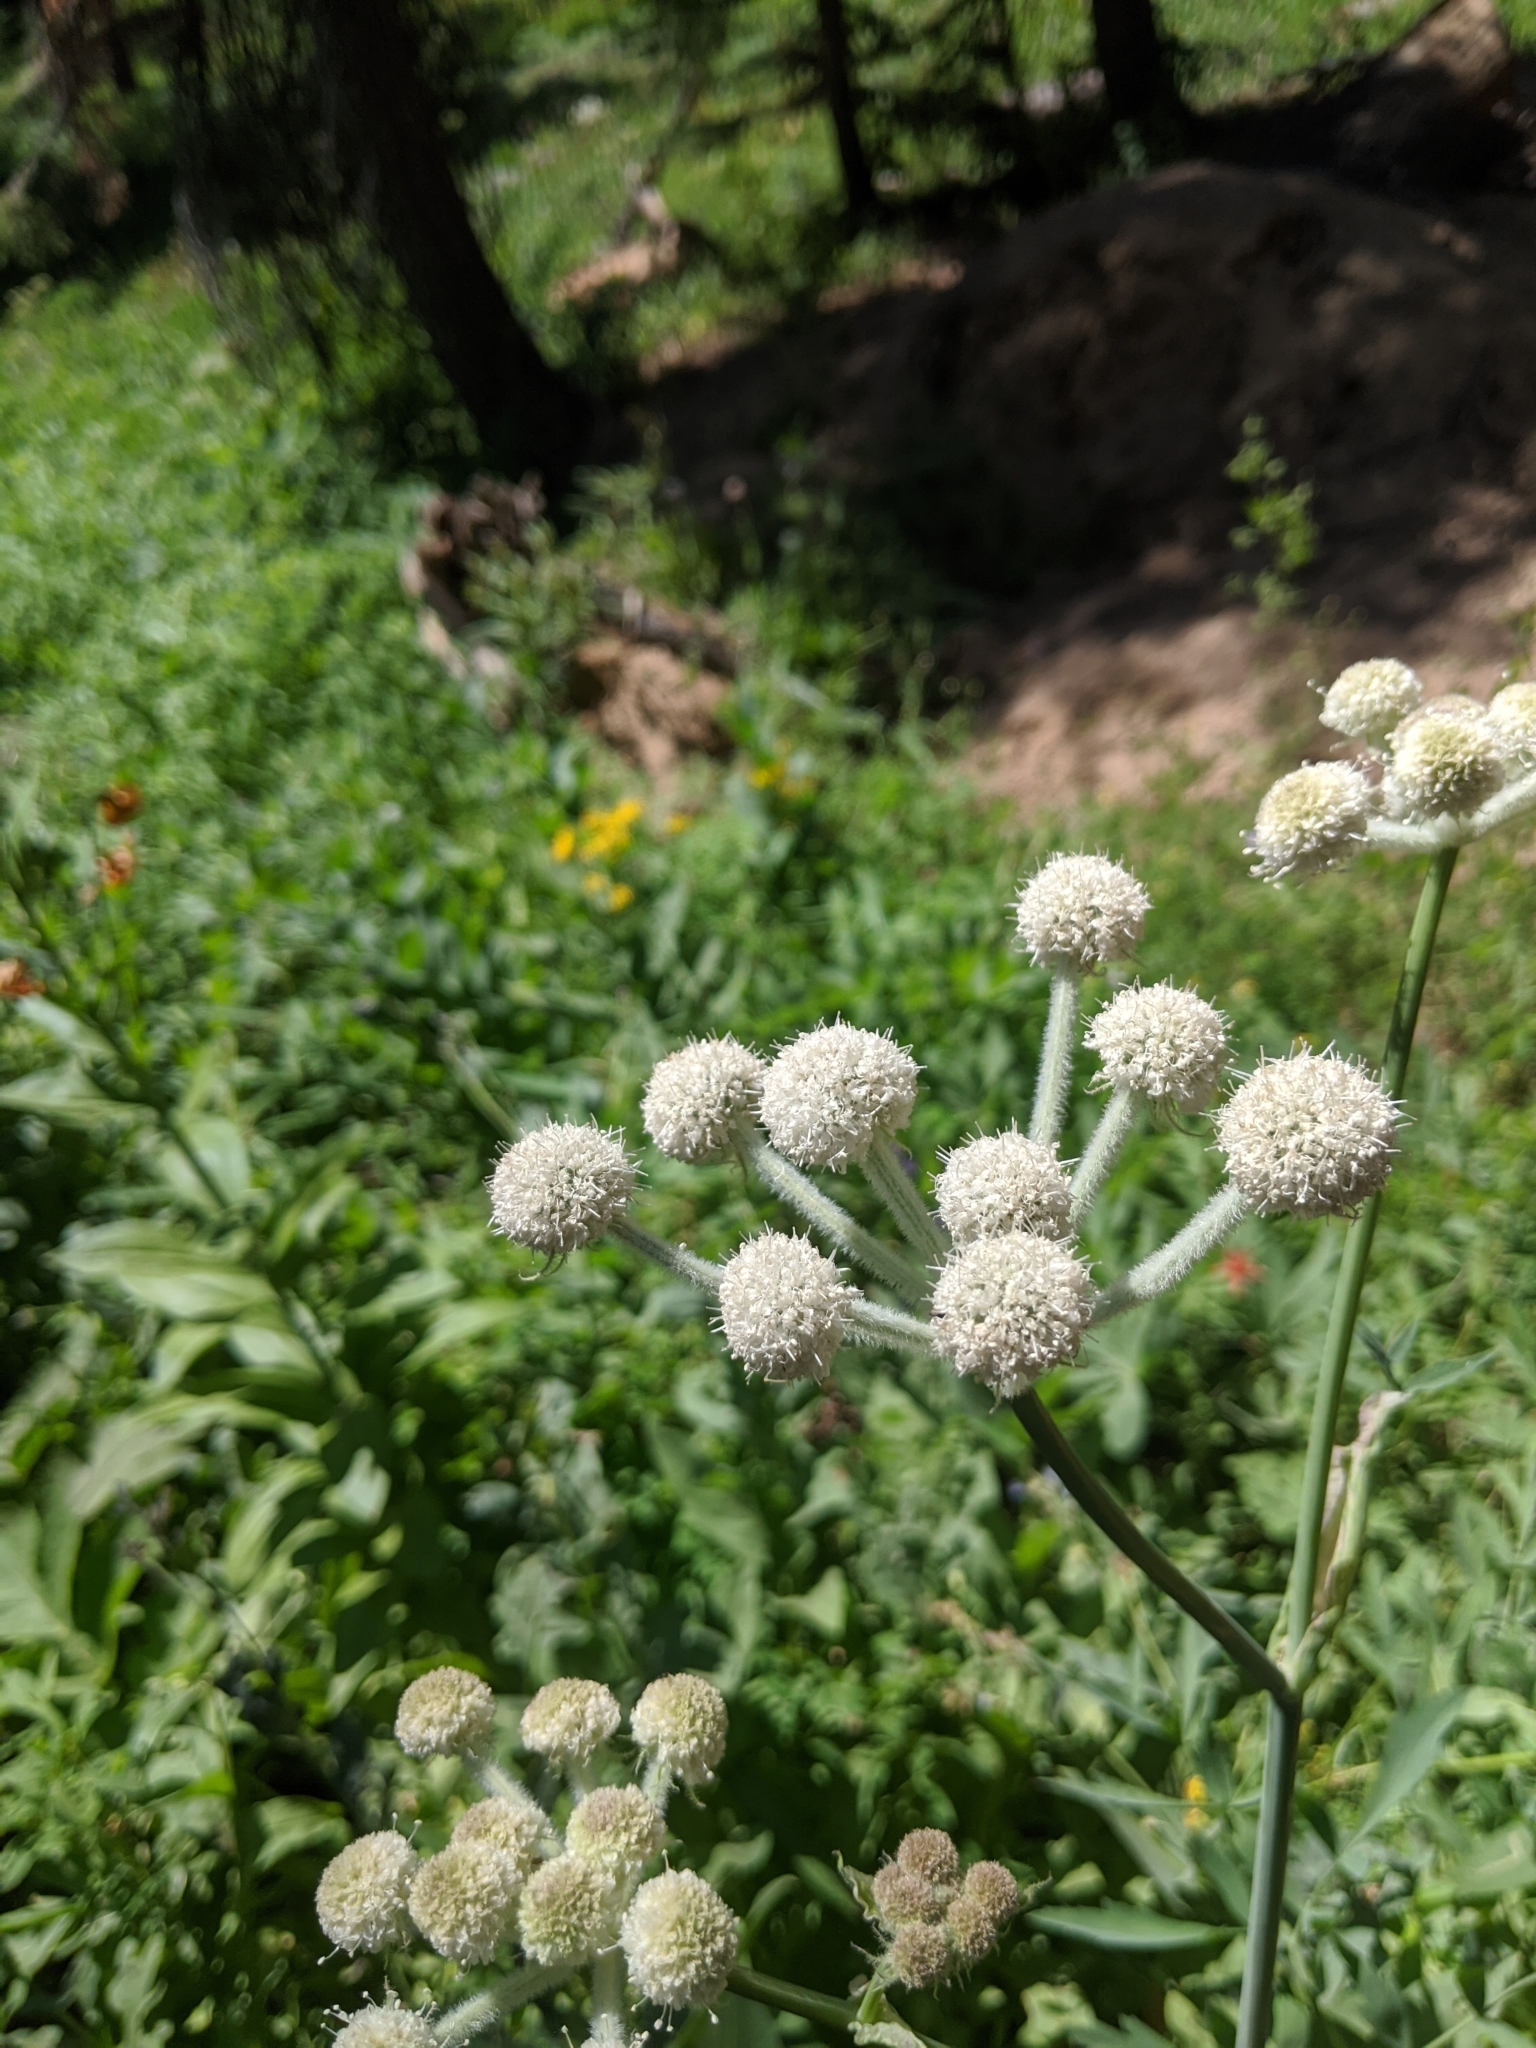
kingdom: Plantae
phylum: Tracheophyta
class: Magnoliopsida
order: Apiales
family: Apiaceae
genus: Angelica
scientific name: Angelica capitellata
